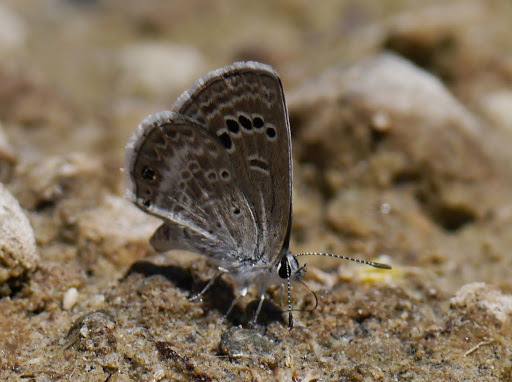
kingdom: Animalia
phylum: Arthropoda
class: Insecta
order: Lepidoptera
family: Lycaenidae
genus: Echinargus
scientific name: Echinargus isola
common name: Reakirt's blue
